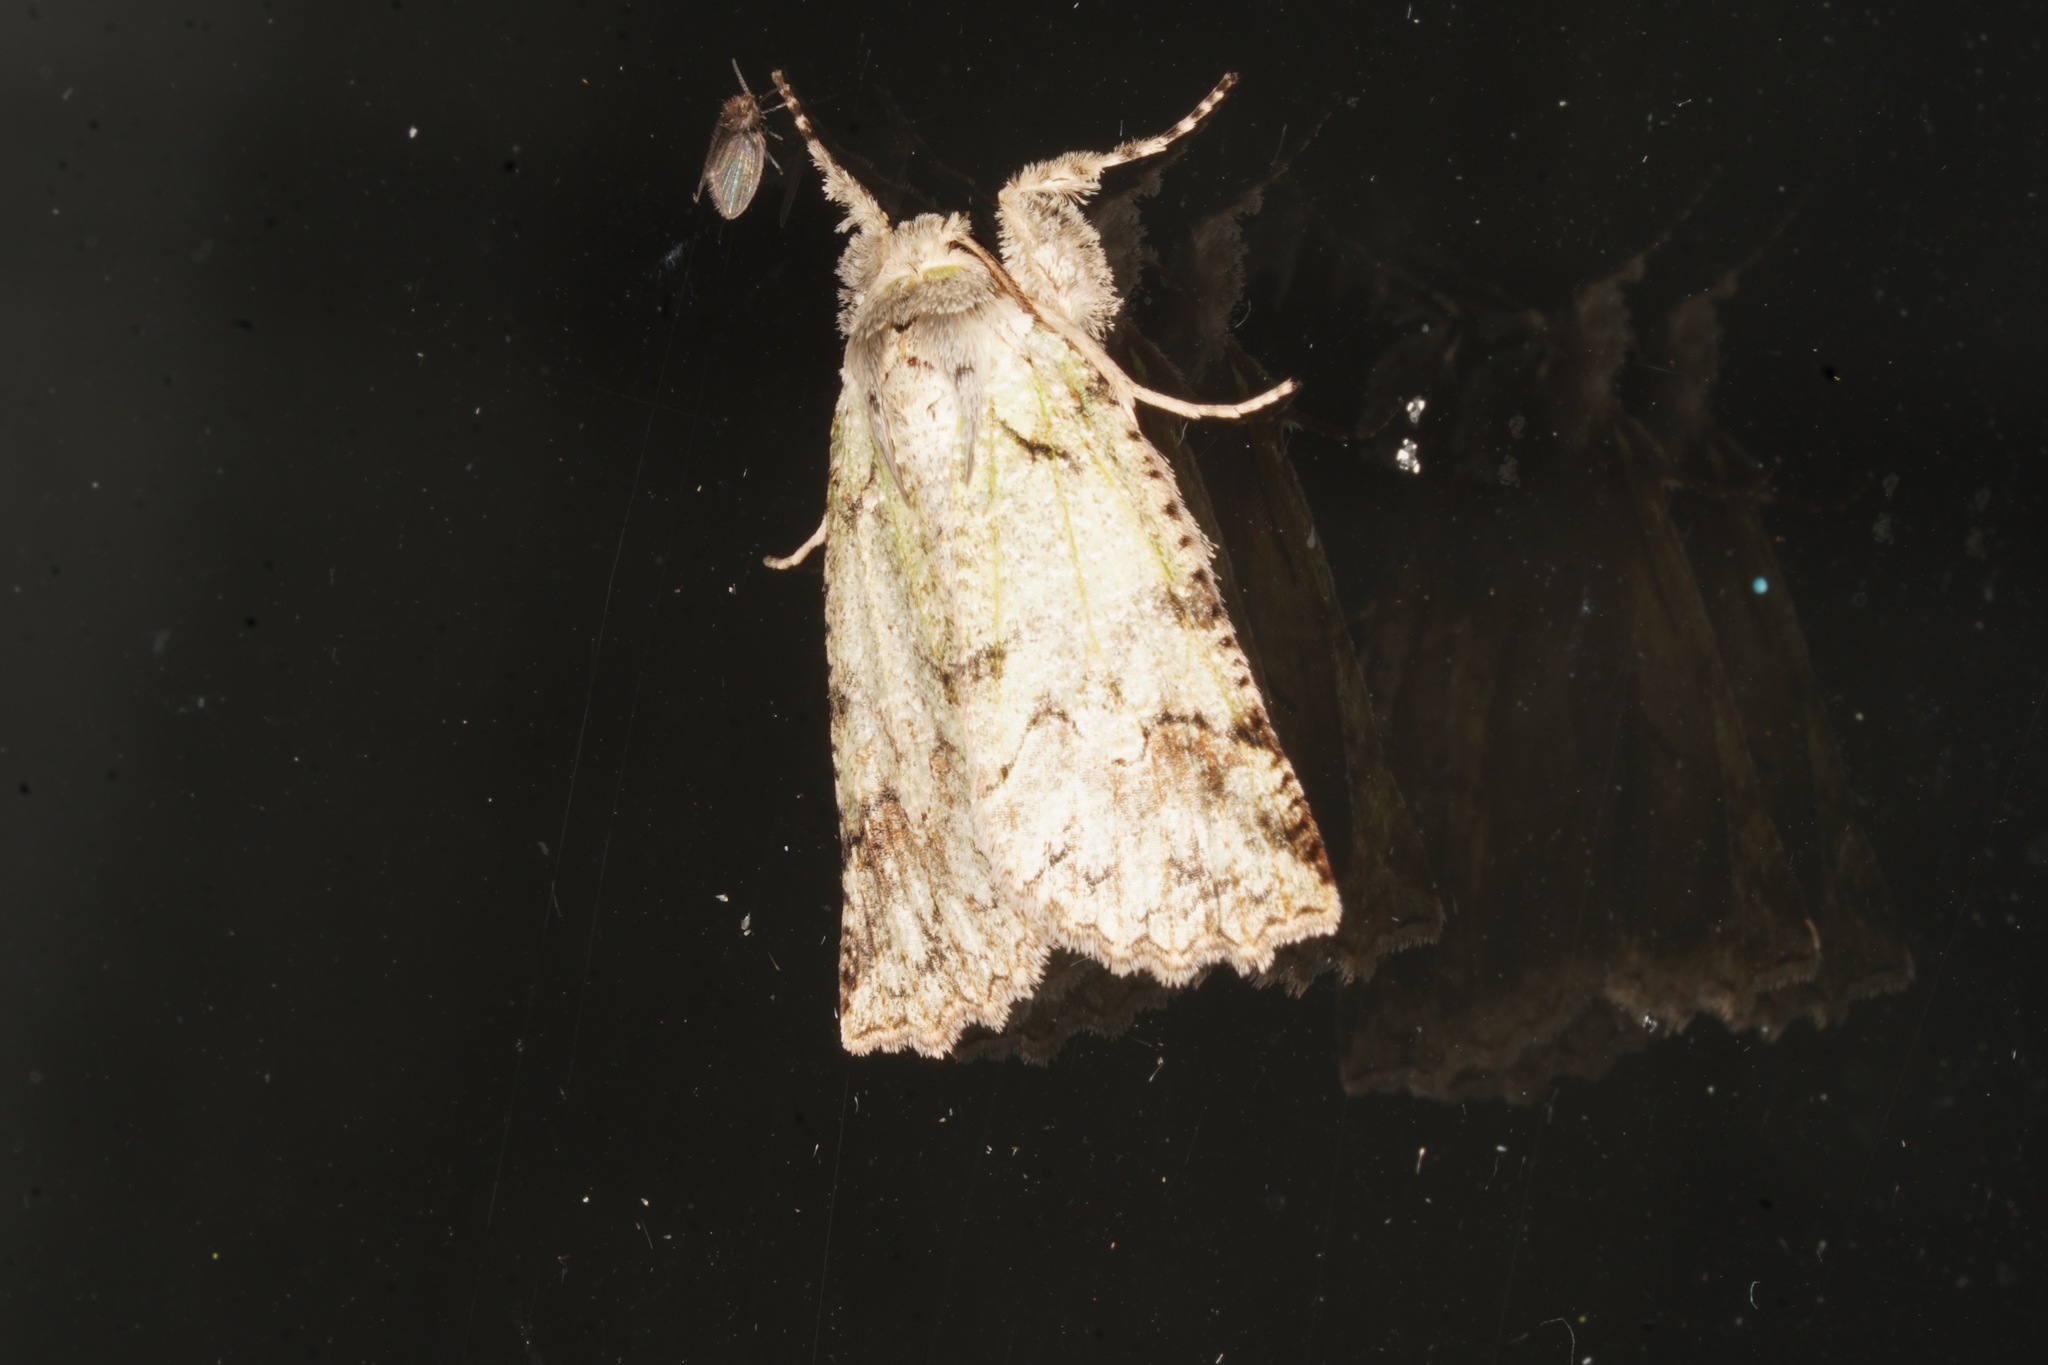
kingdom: Animalia
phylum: Arthropoda
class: Insecta
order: Lepidoptera
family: Geometridae
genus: Declana
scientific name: Declana floccosa
